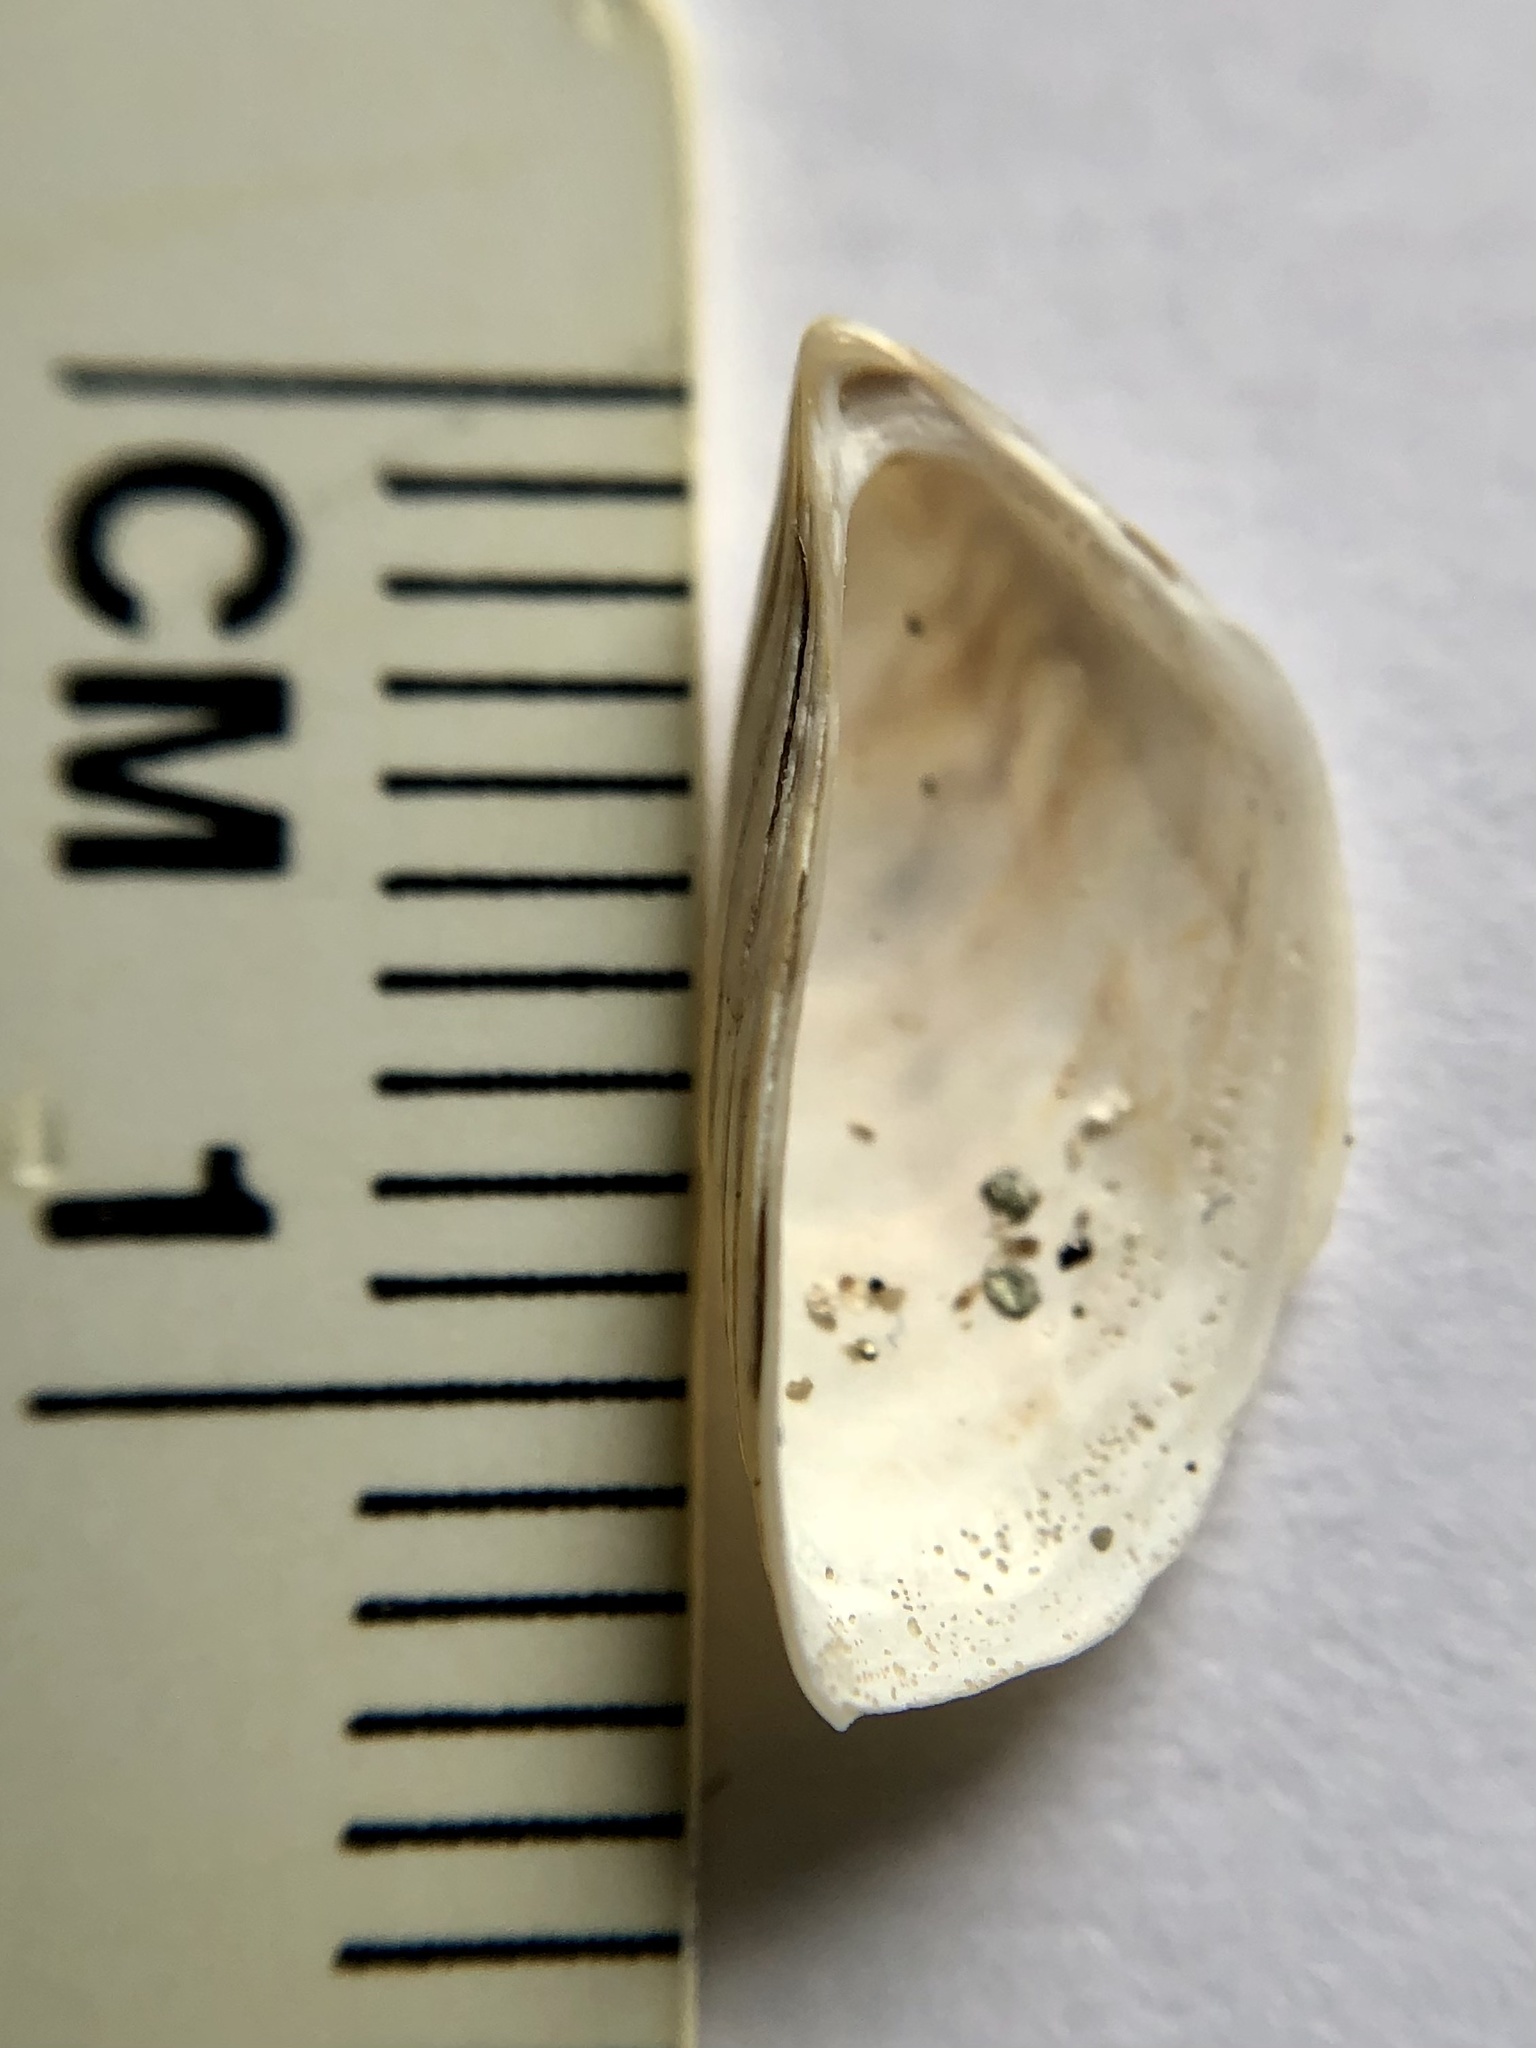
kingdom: Animalia
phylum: Mollusca
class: Bivalvia
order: Myida
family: Dreissenidae
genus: Dreissena
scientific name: Dreissena polymorpha
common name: Zebra mussel
